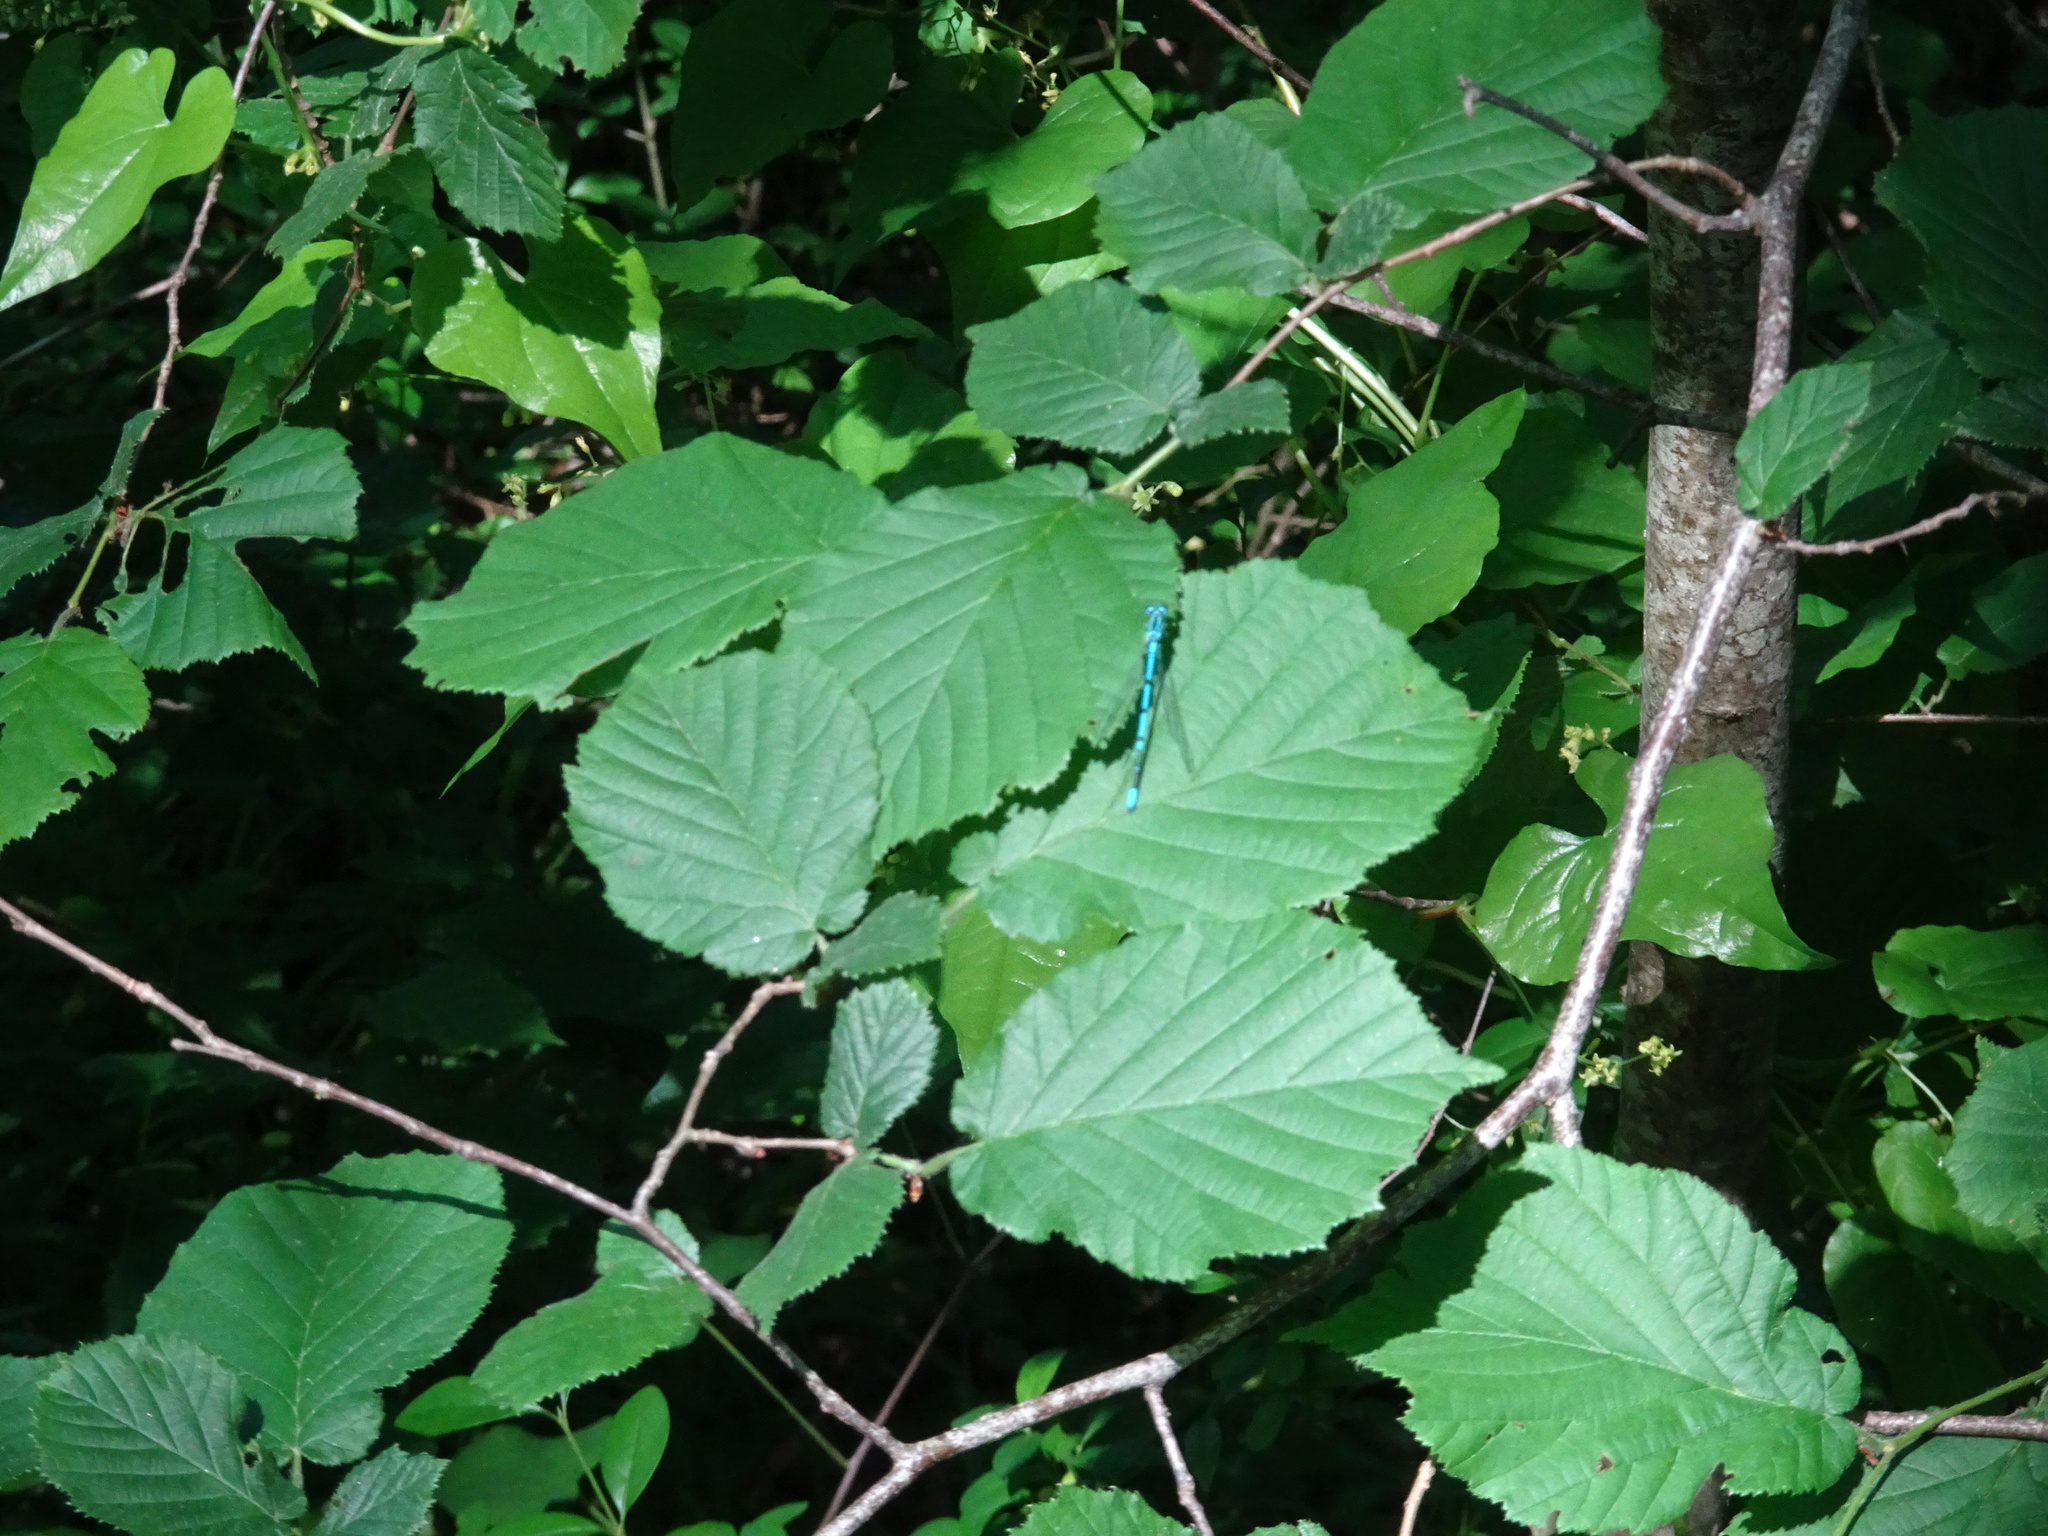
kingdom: Animalia
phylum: Arthropoda
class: Insecta
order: Odonata
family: Coenagrionidae
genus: Coenagrion
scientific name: Coenagrion puella
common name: Azure damselfly
